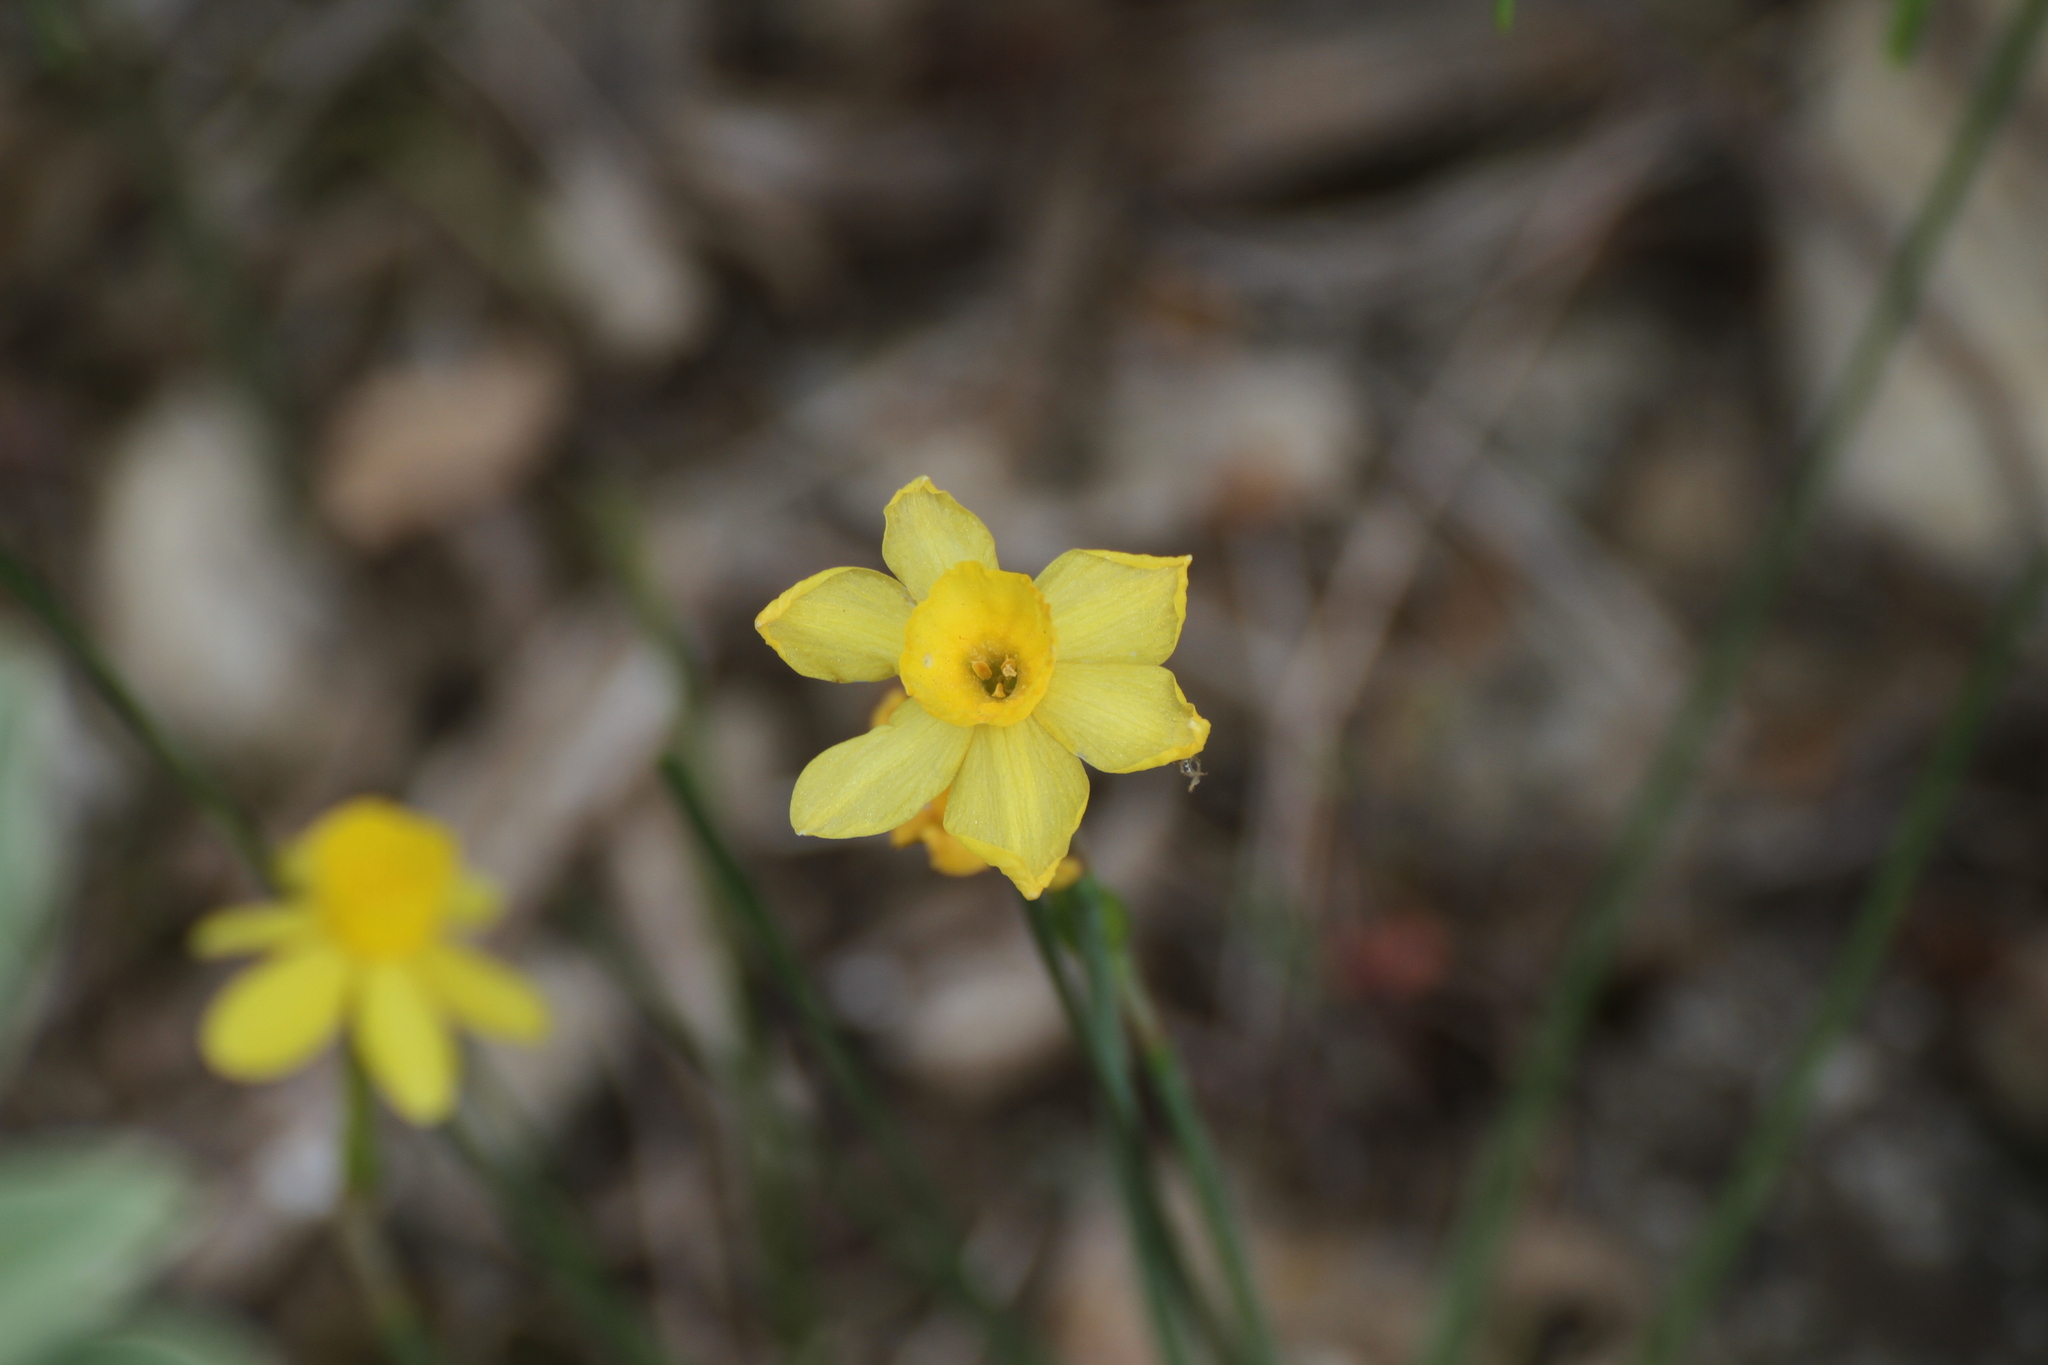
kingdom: Plantae
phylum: Tracheophyta
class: Liliopsida
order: Asparagales
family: Amaryllidaceae
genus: Narcissus
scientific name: Narcissus assoanus
